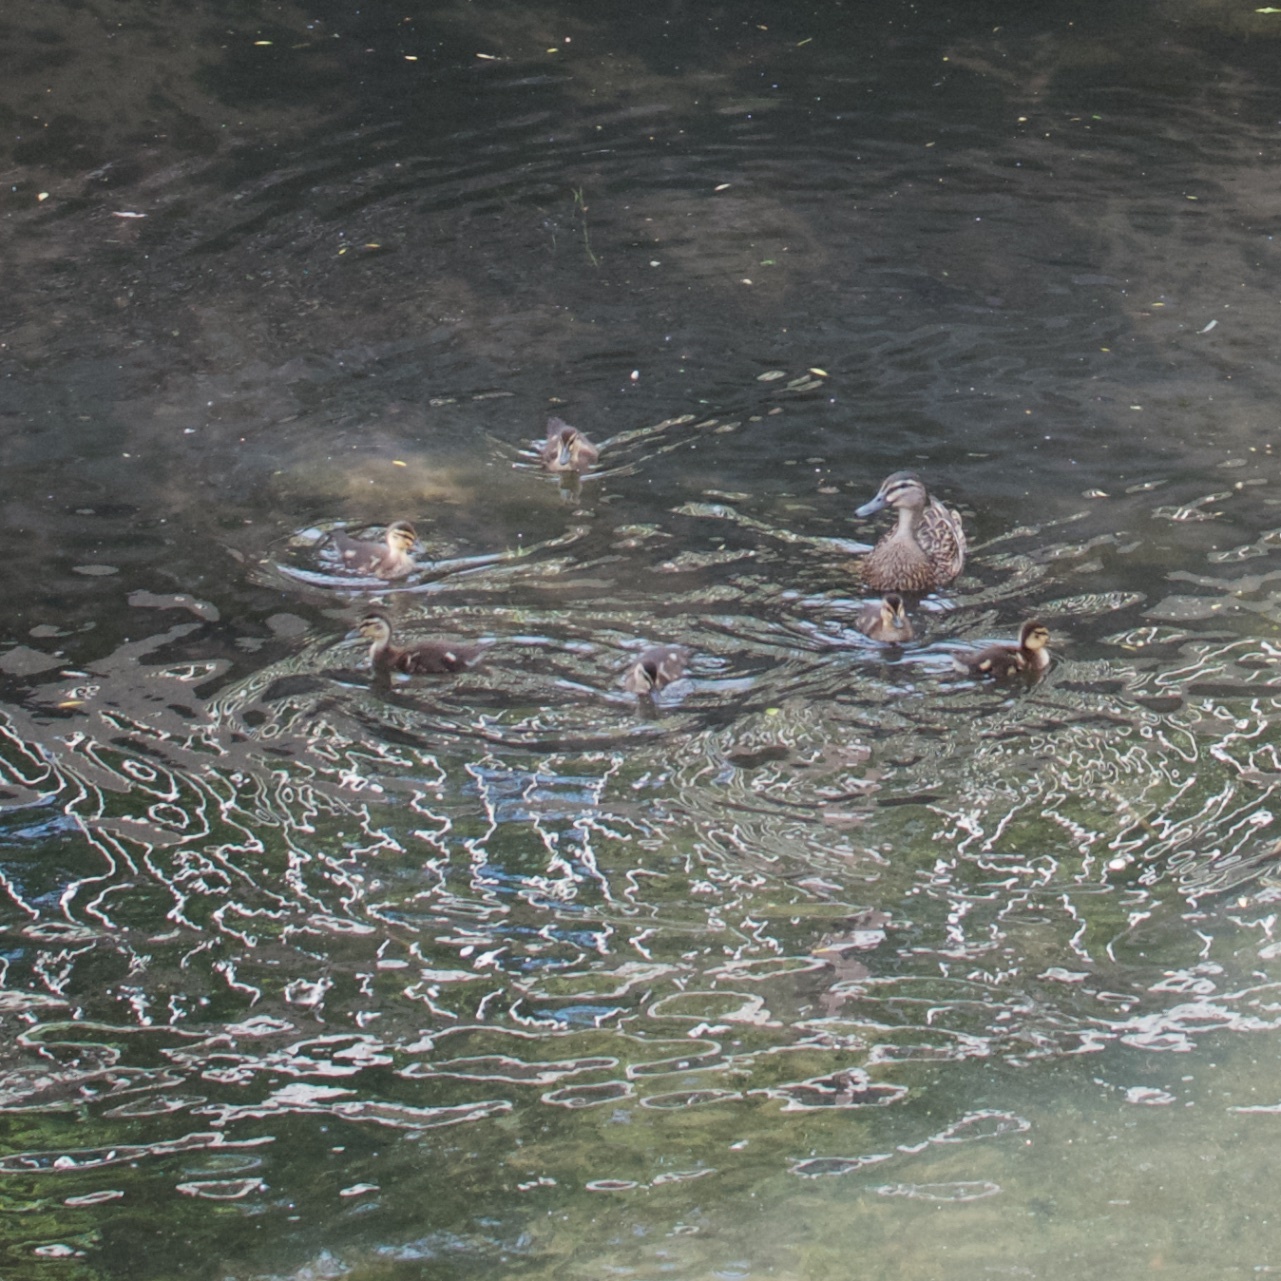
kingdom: Animalia
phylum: Chordata
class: Aves
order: Anseriformes
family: Anatidae
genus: Anas
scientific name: Anas platyrhynchos
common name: Mallard
